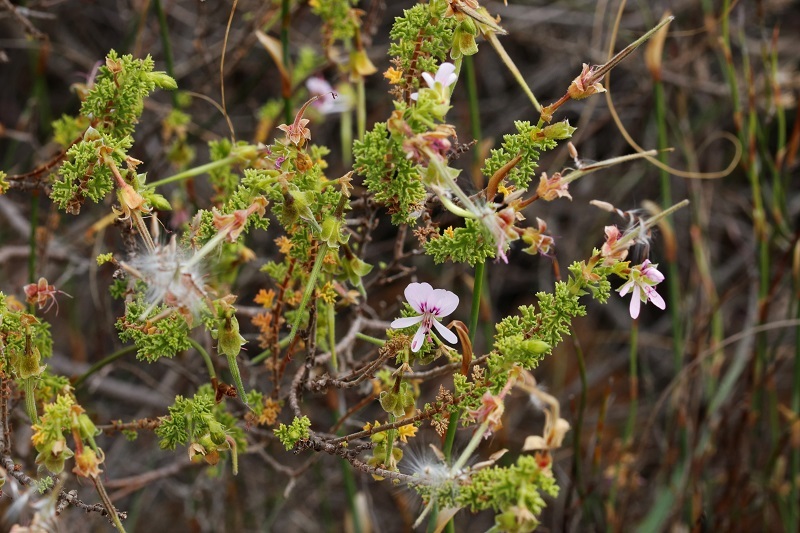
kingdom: Plantae
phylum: Tracheophyta
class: Magnoliopsida
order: Geraniales
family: Geraniaceae
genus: Pelargonium
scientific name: Pelargonium hermaniifolium
